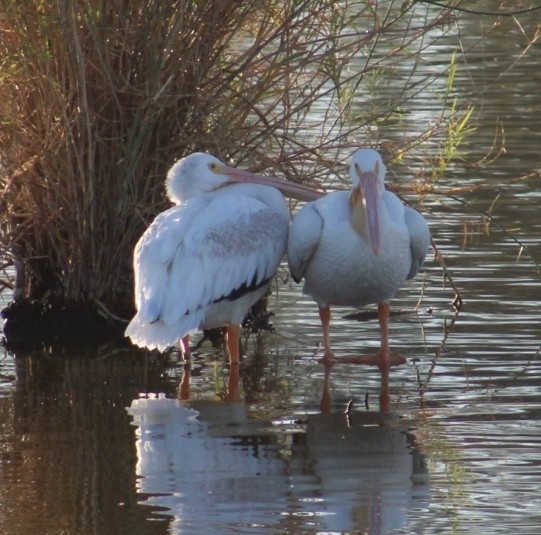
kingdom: Animalia
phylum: Chordata
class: Aves
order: Pelecaniformes
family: Pelecanidae
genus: Pelecanus
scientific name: Pelecanus erythrorhynchos
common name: American white pelican
